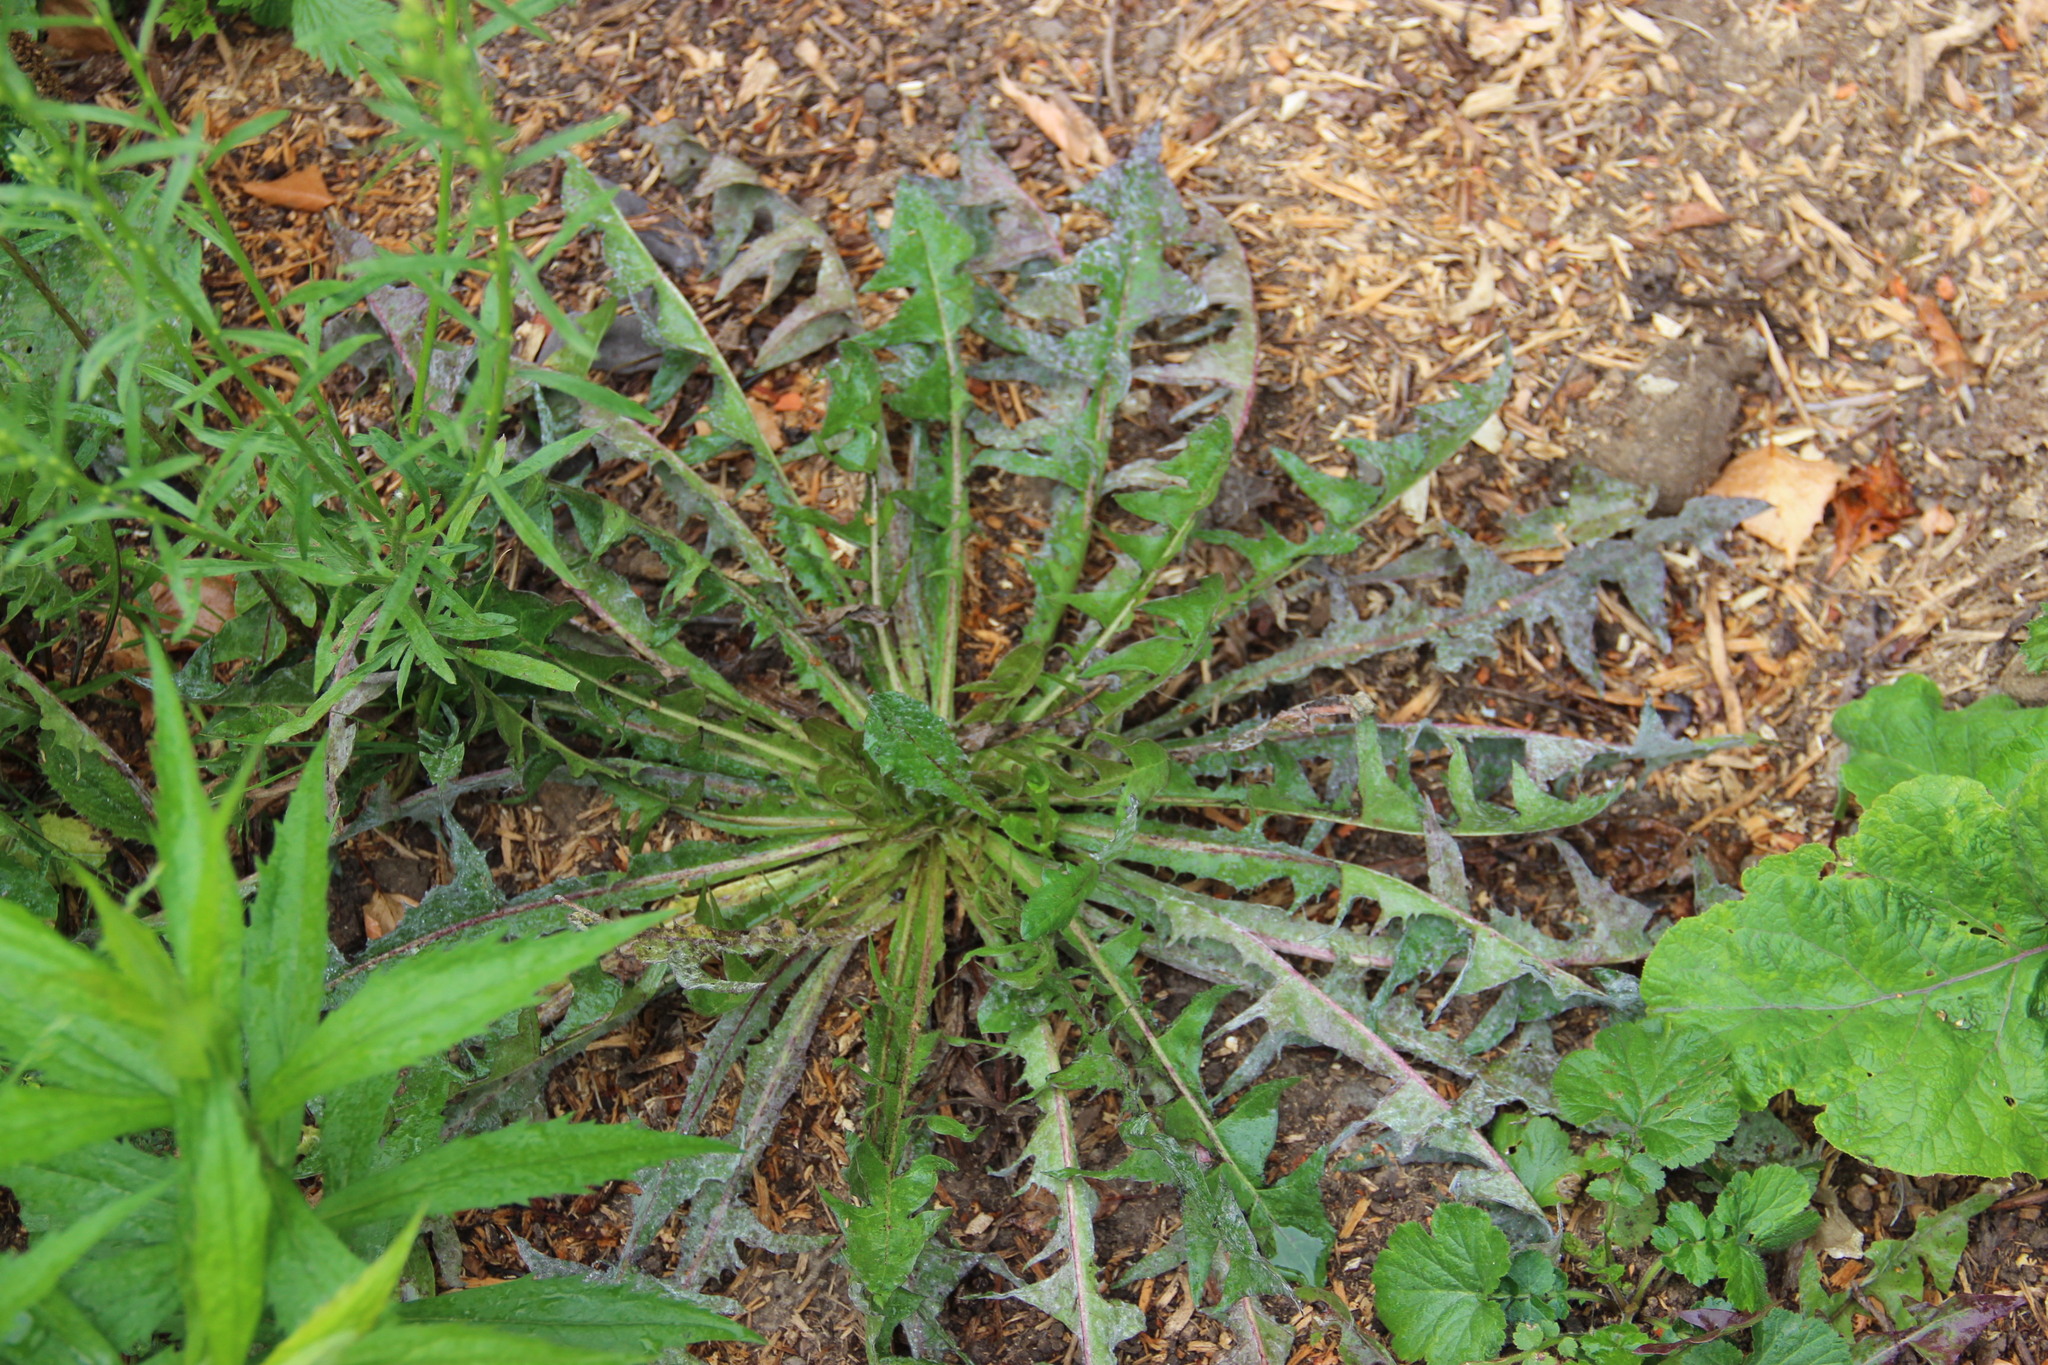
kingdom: Plantae
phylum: Tracheophyta
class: Magnoliopsida
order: Asterales
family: Asteraceae
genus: Taraxacum
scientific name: Taraxacum officinale
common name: Common dandelion
